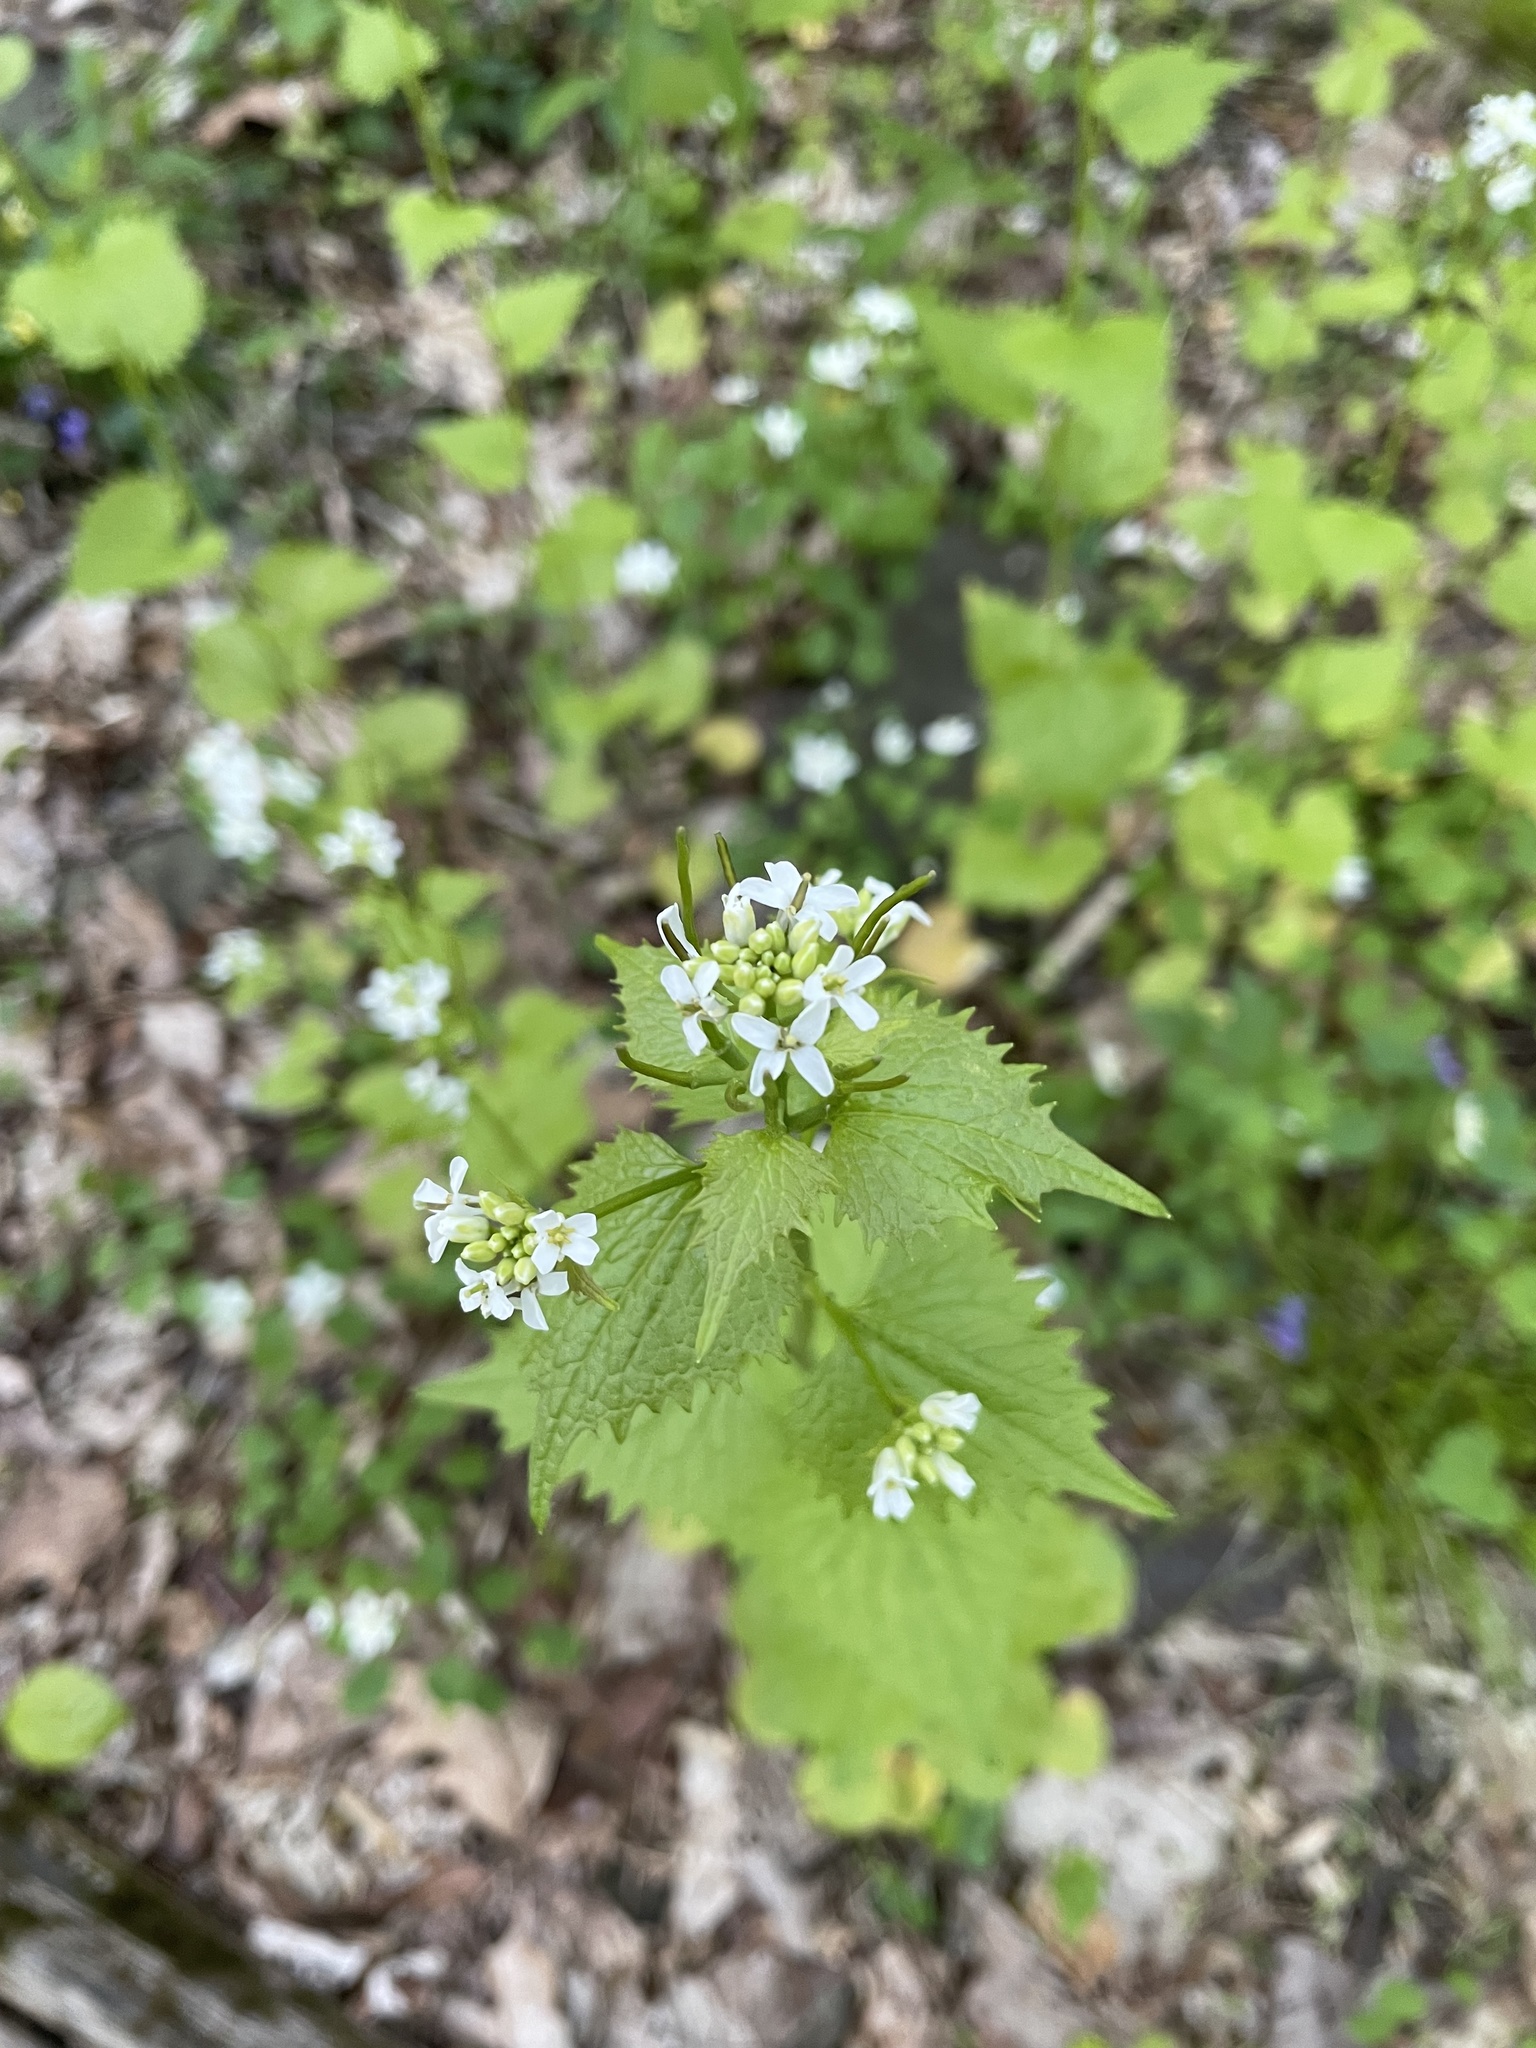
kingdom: Plantae
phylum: Tracheophyta
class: Magnoliopsida
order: Brassicales
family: Brassicaceae
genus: Alliaria
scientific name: Alliaria petiolata
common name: Garlic mustard
